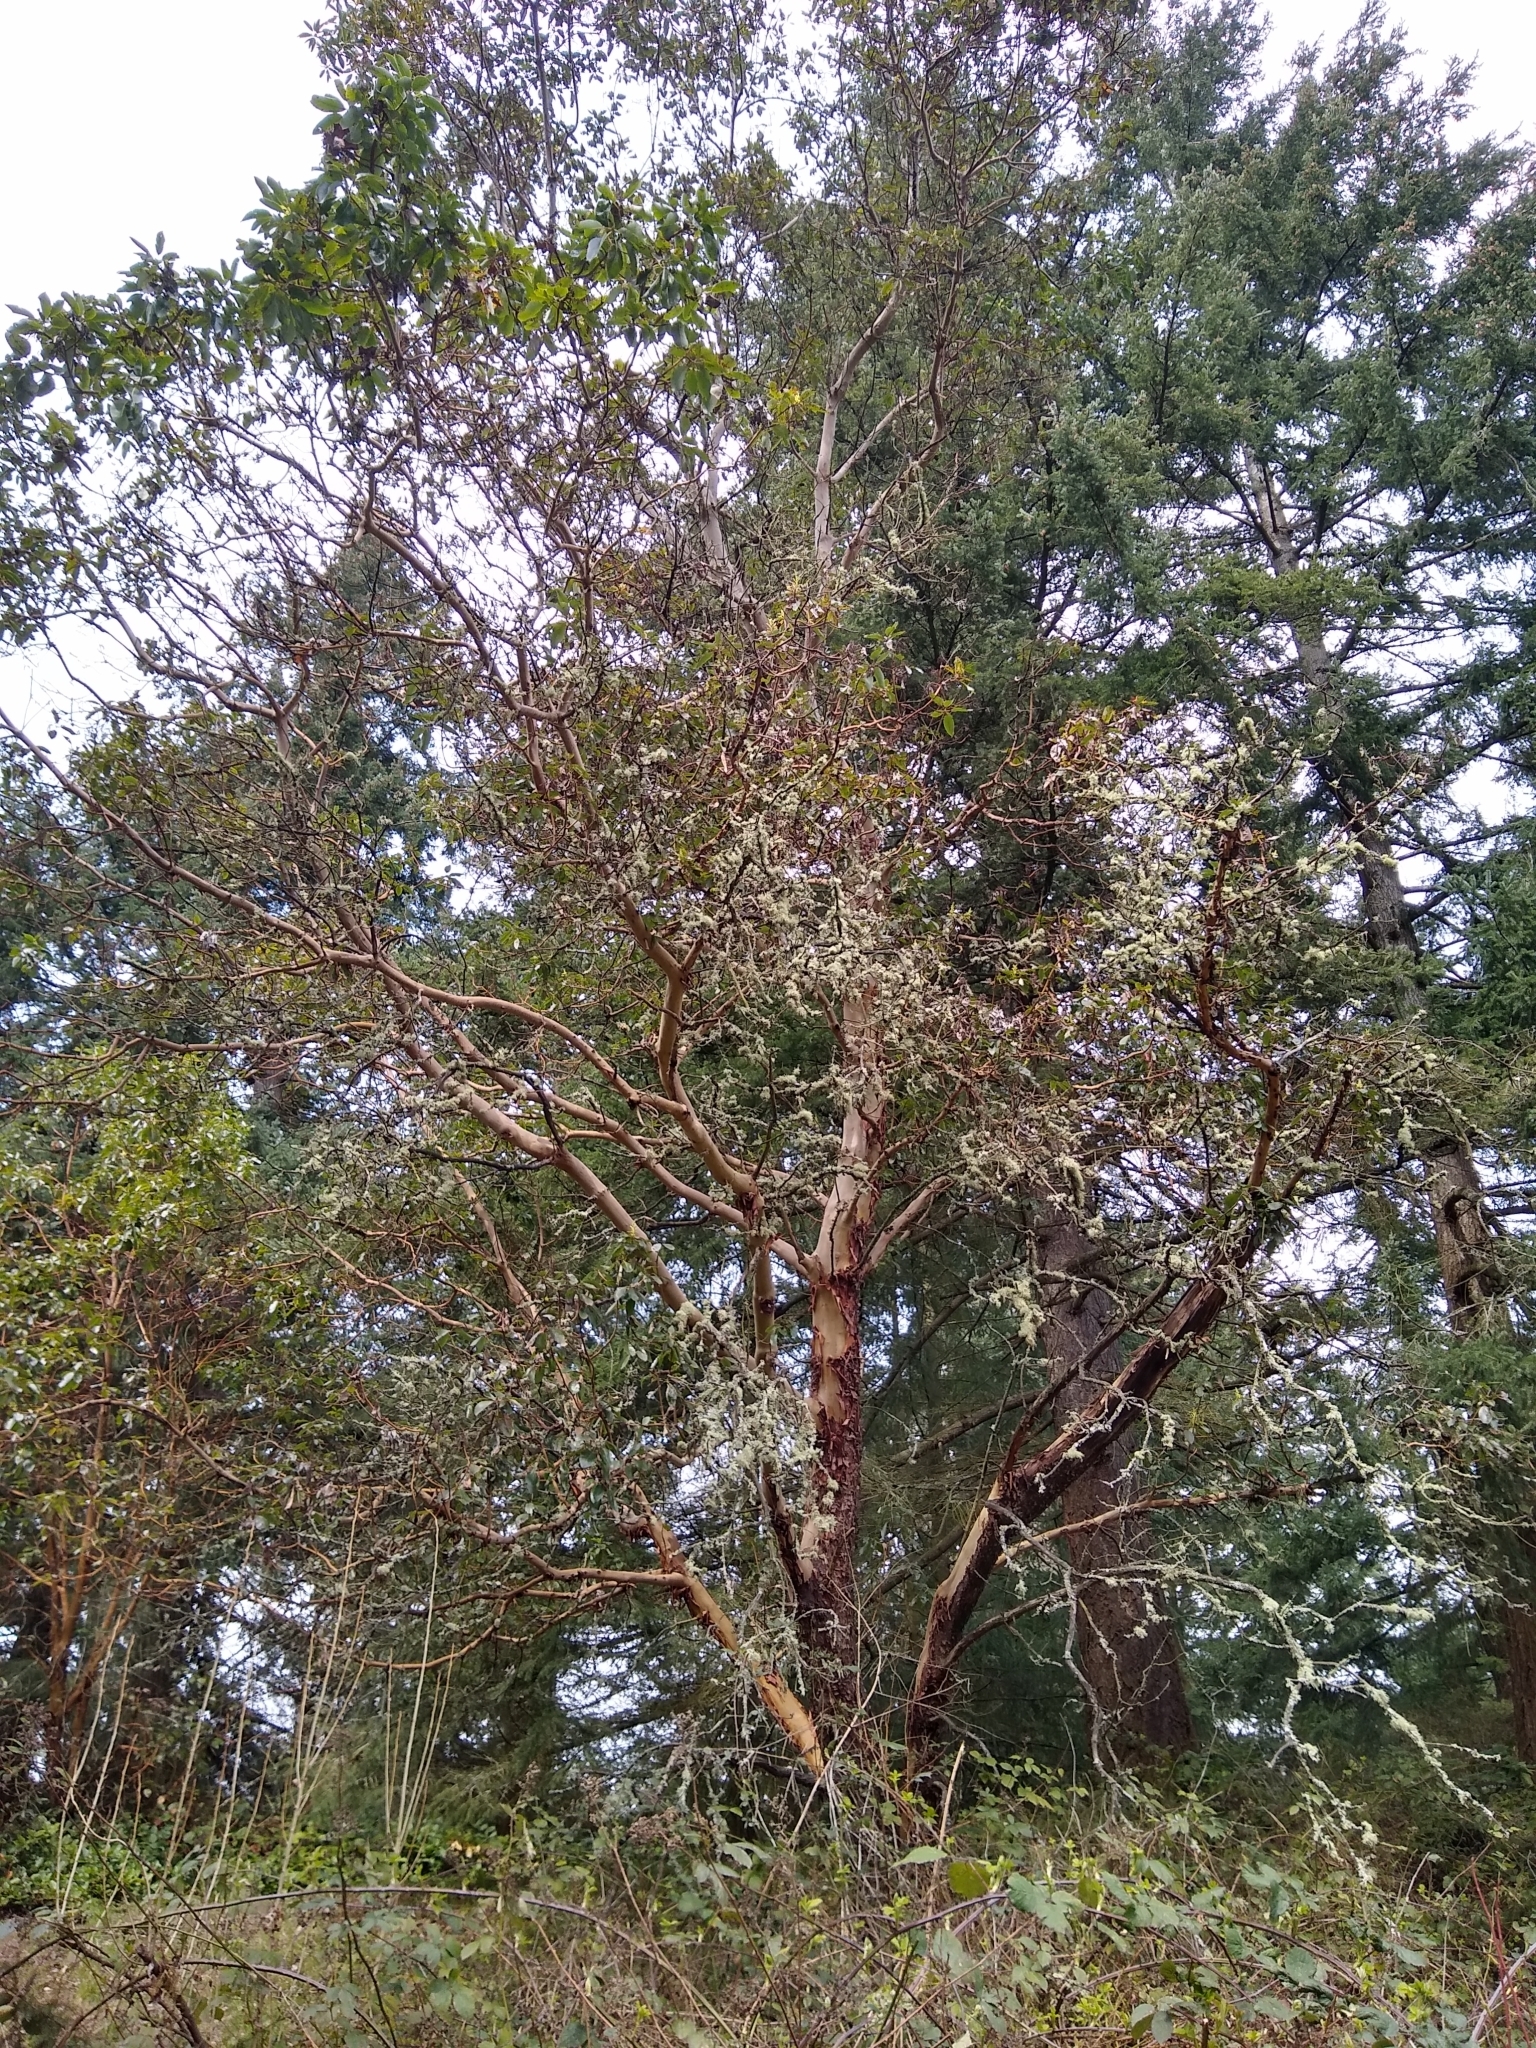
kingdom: Plantae
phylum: Tracheophyta
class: Magnoliopsida
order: Ericales
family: Ericaceae
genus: Arbutus
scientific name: Arbutus menziesii
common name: Pacific madrone
